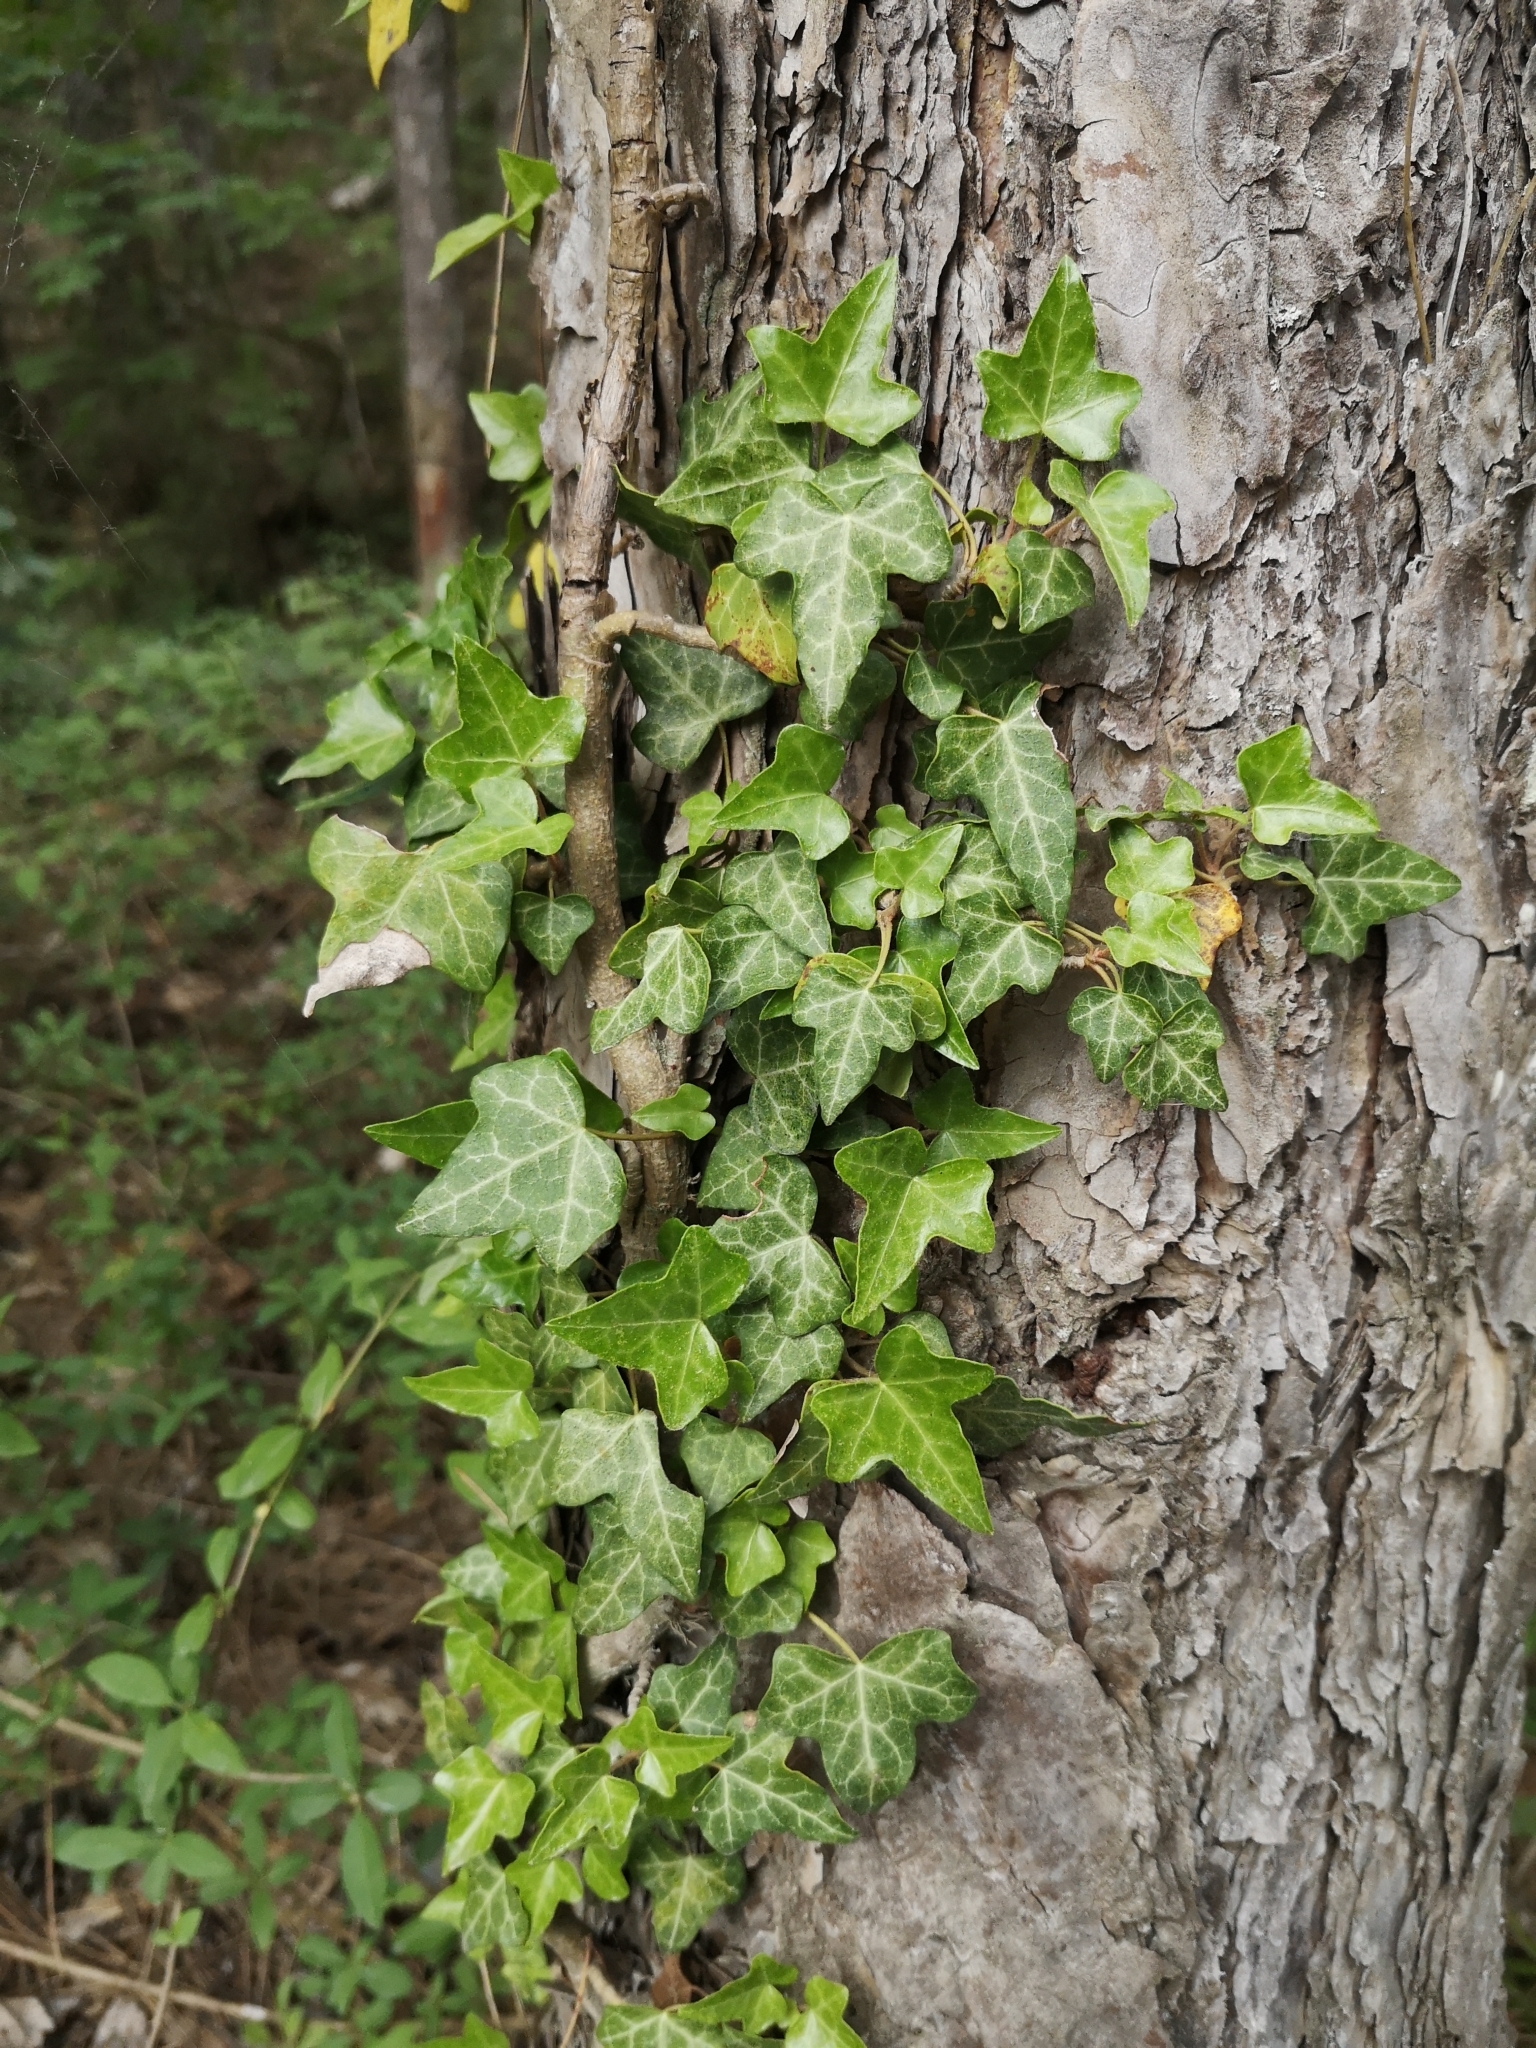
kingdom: Plantae
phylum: Tracheophyta
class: Magnoliopsida
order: Apiales
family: Araliaceae
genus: Hedera
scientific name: Hedera helix
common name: Ivy
